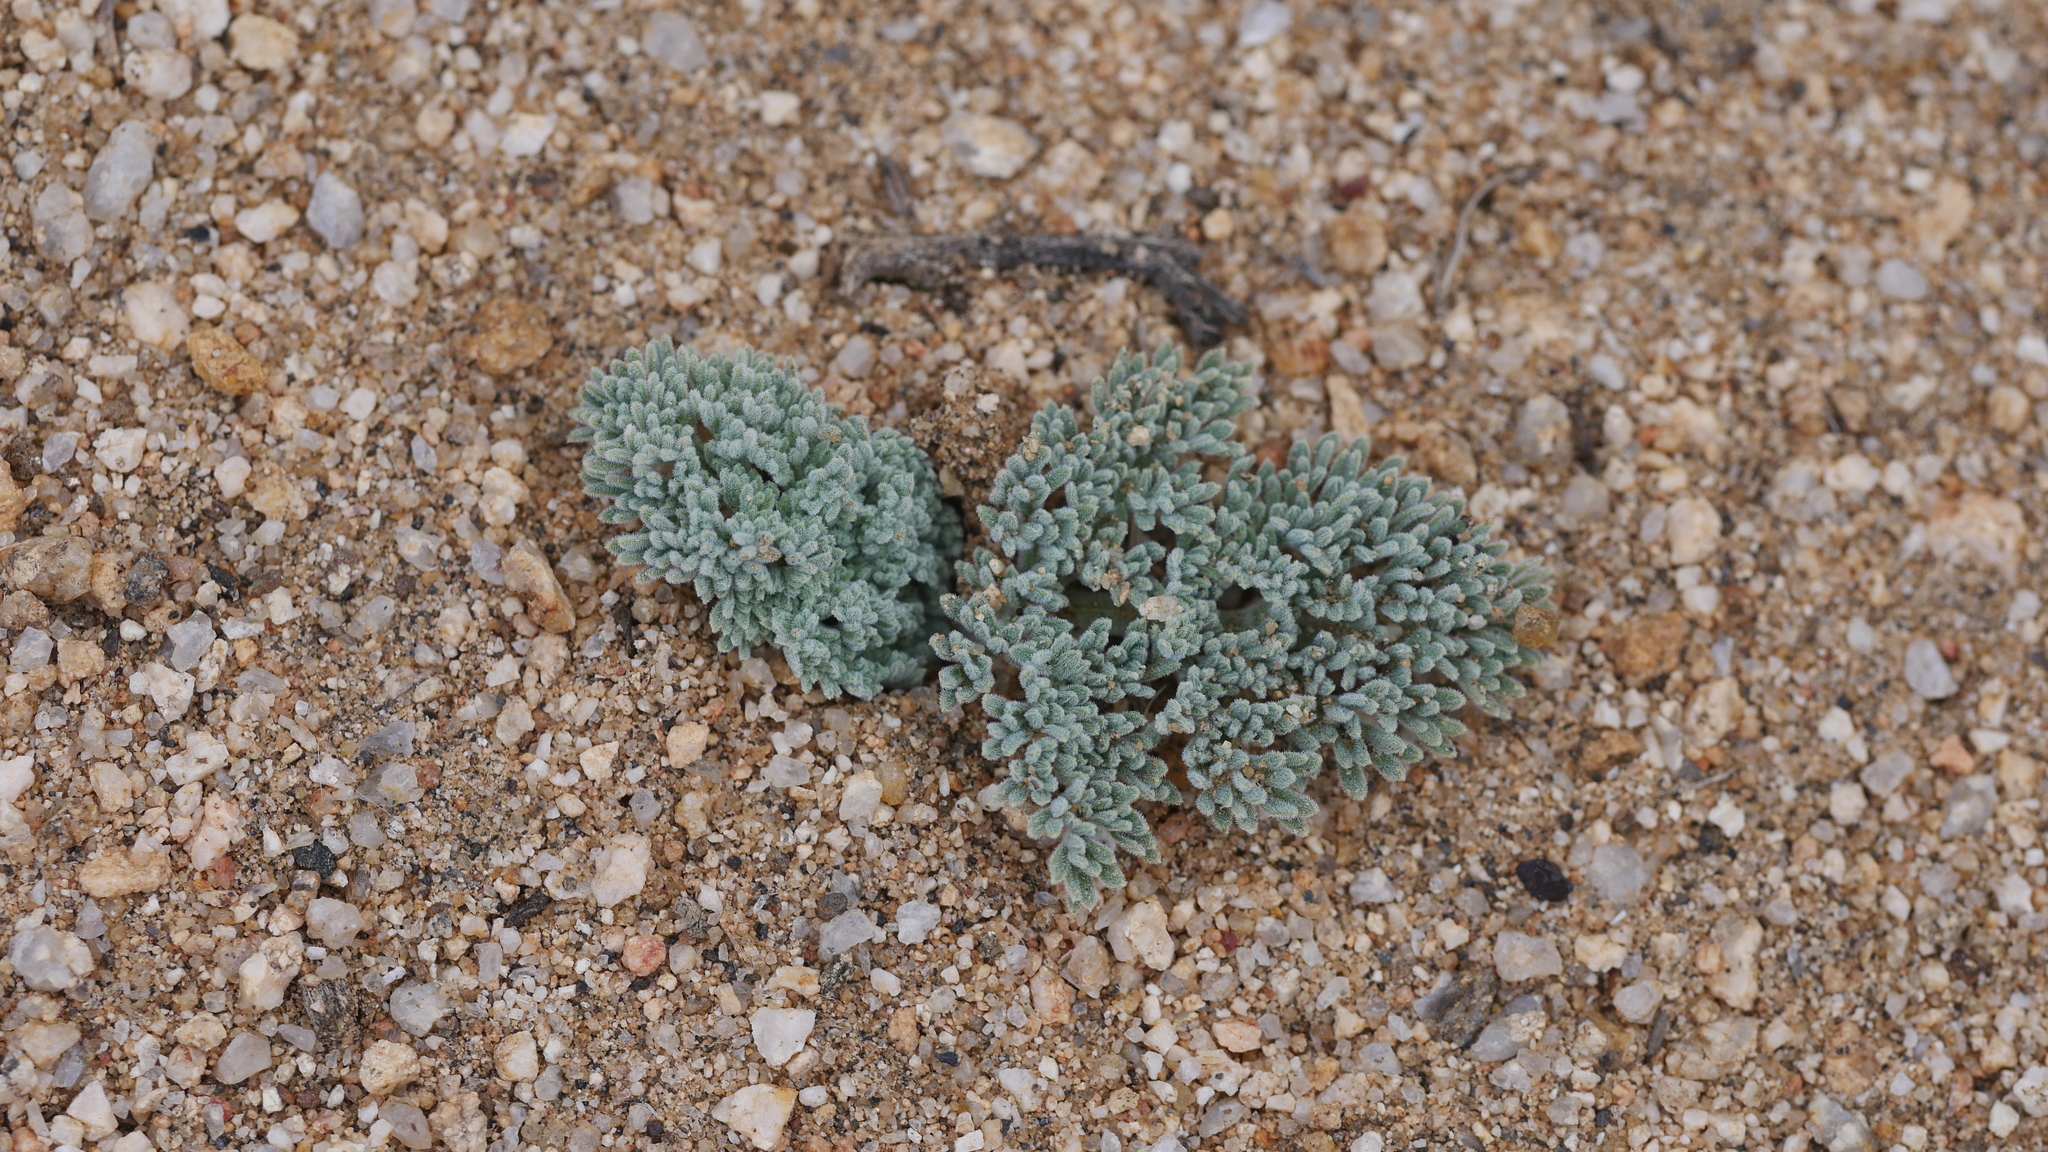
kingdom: Plantae
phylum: Tracheophyta
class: Magnoliopsida
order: Apiales
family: Apiaceae
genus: Lomatium
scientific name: Lomatium mohavense
